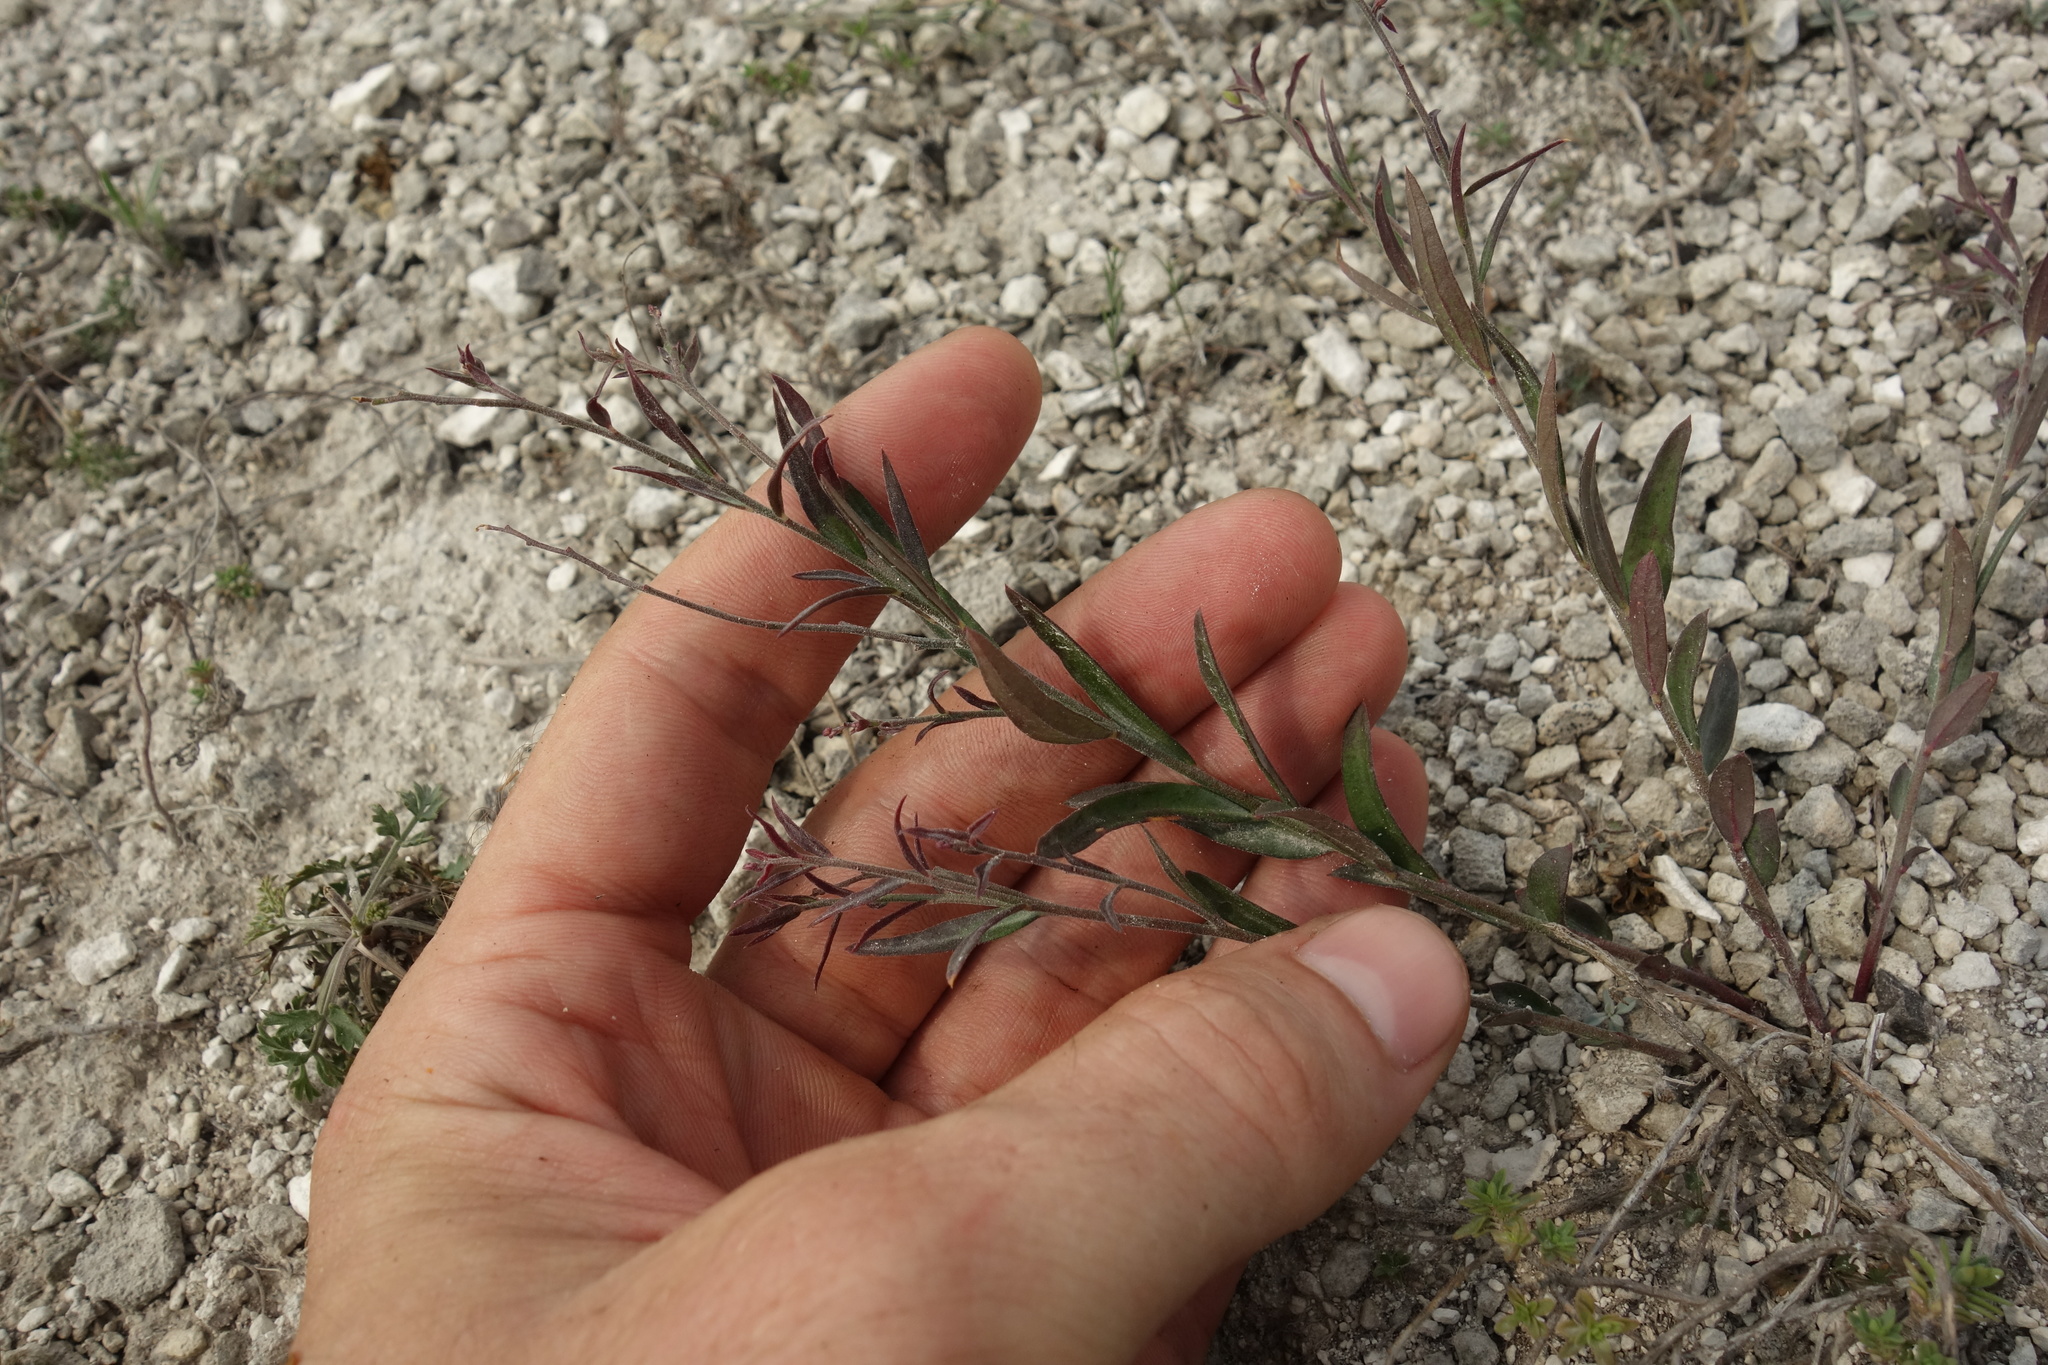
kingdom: Plantae
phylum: Tracheophyta
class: Magnoliopsida
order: Fabales
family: Polygalaceae
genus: Polygala
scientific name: Polygala sibirica
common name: Siberian polygala
